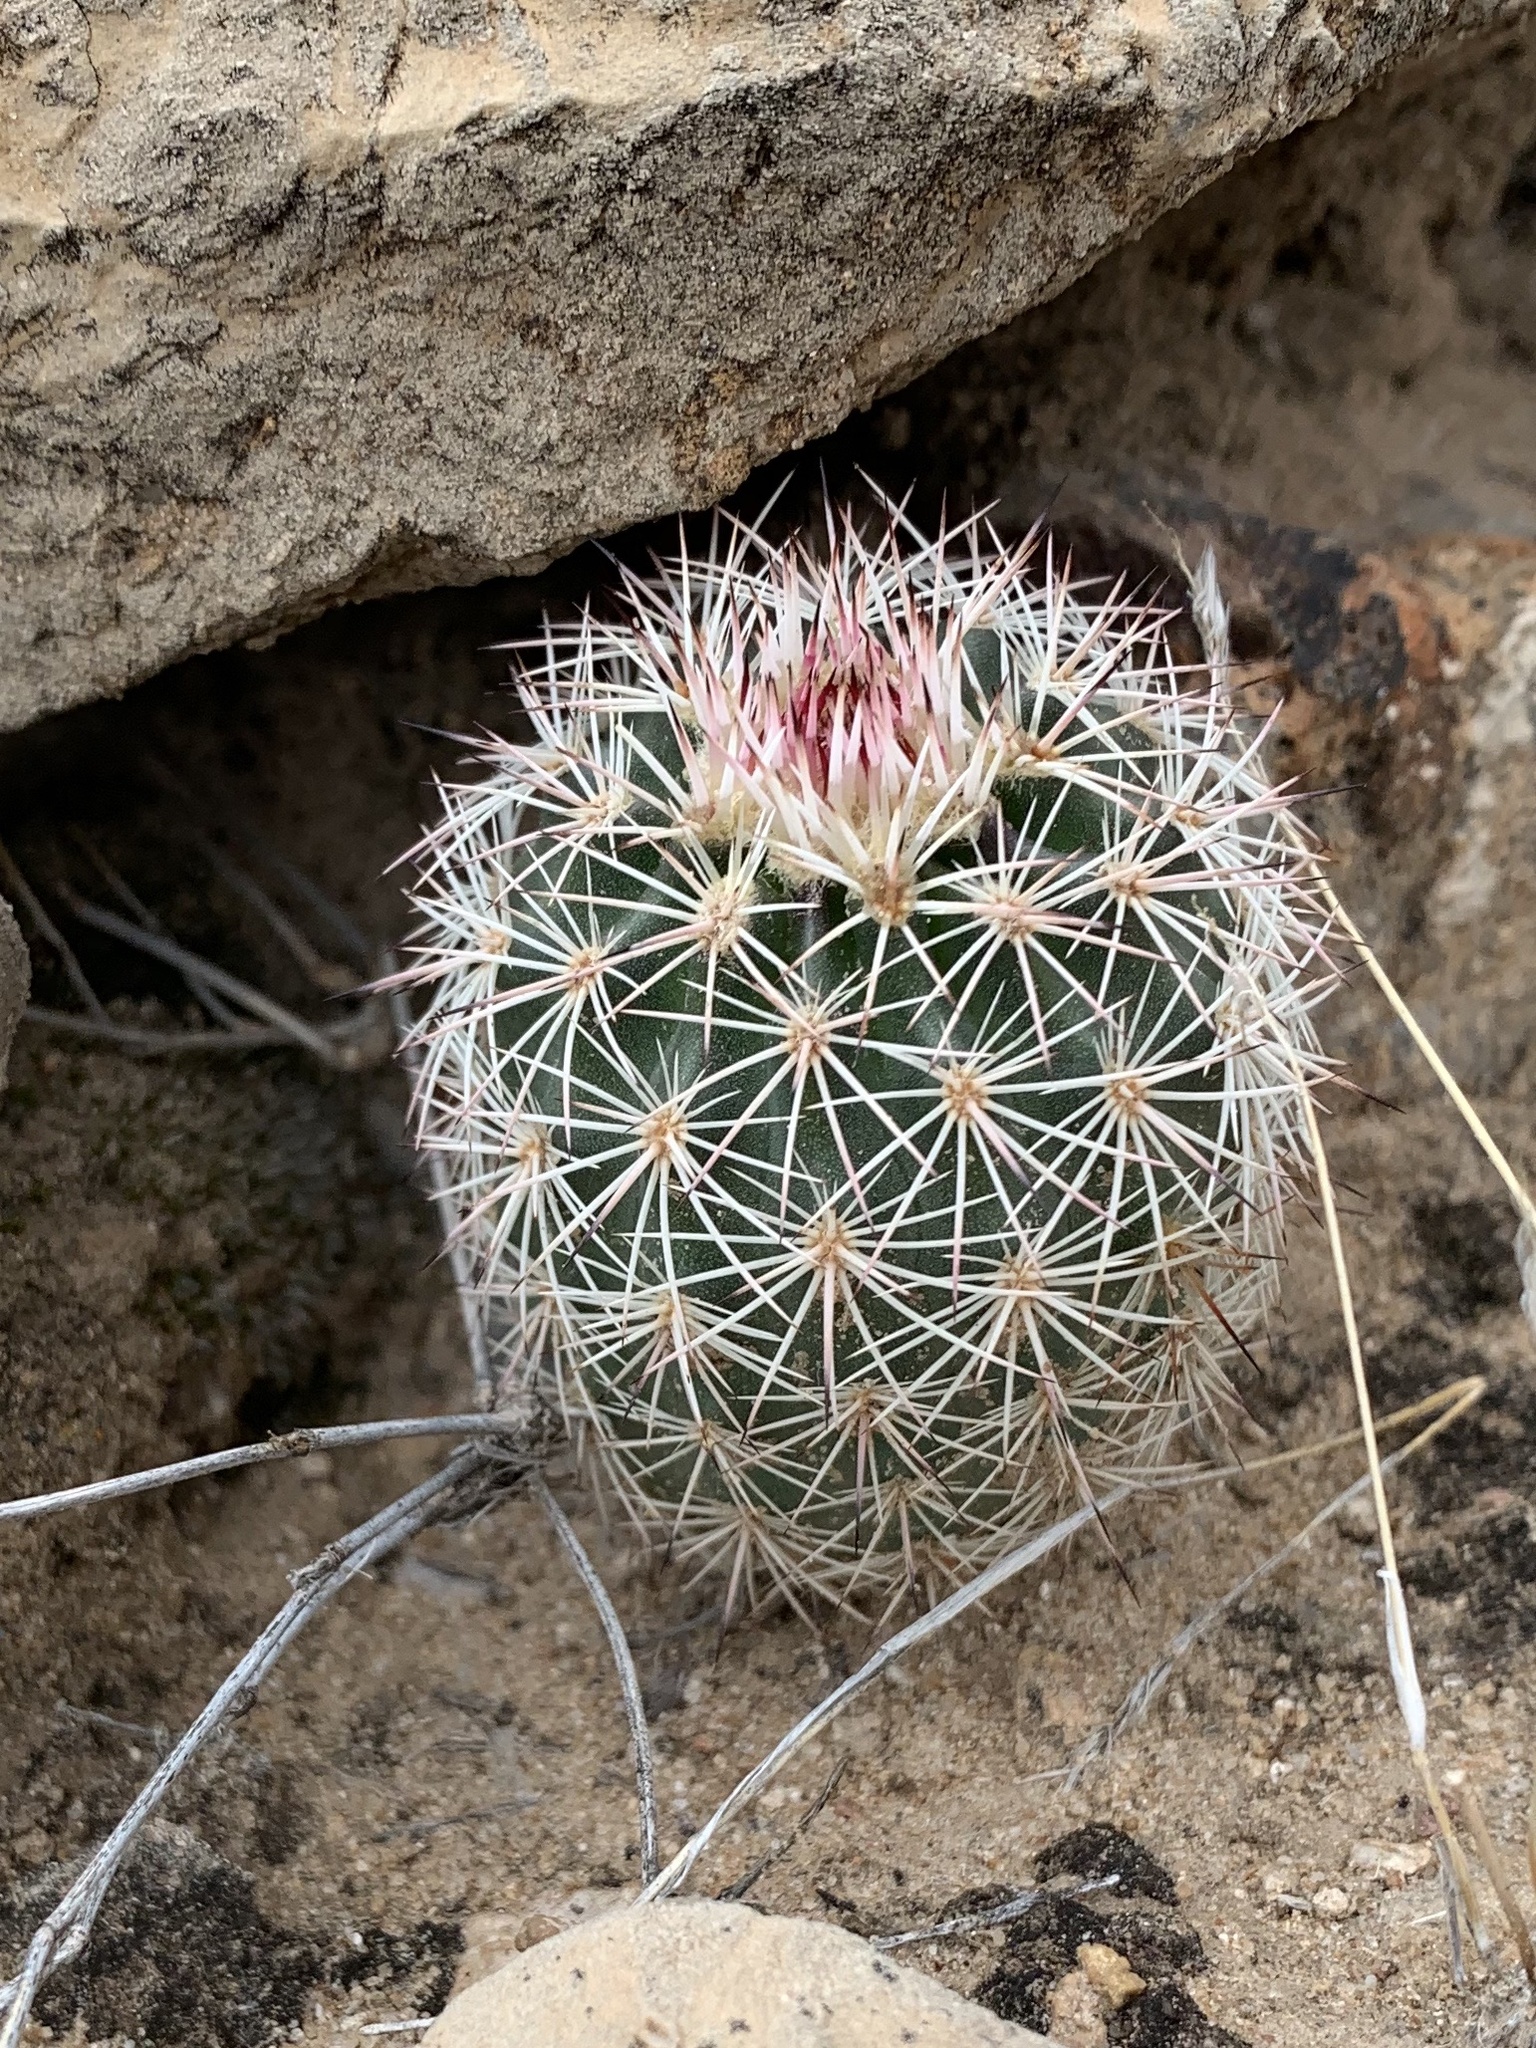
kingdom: Plantae
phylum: Tracheophyta
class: Magnoliopsida
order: Caryophyllales
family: Cactaceae
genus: Echinocereus
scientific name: Echinocereus dasyacanthus
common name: Spiny hedgehog cactus
